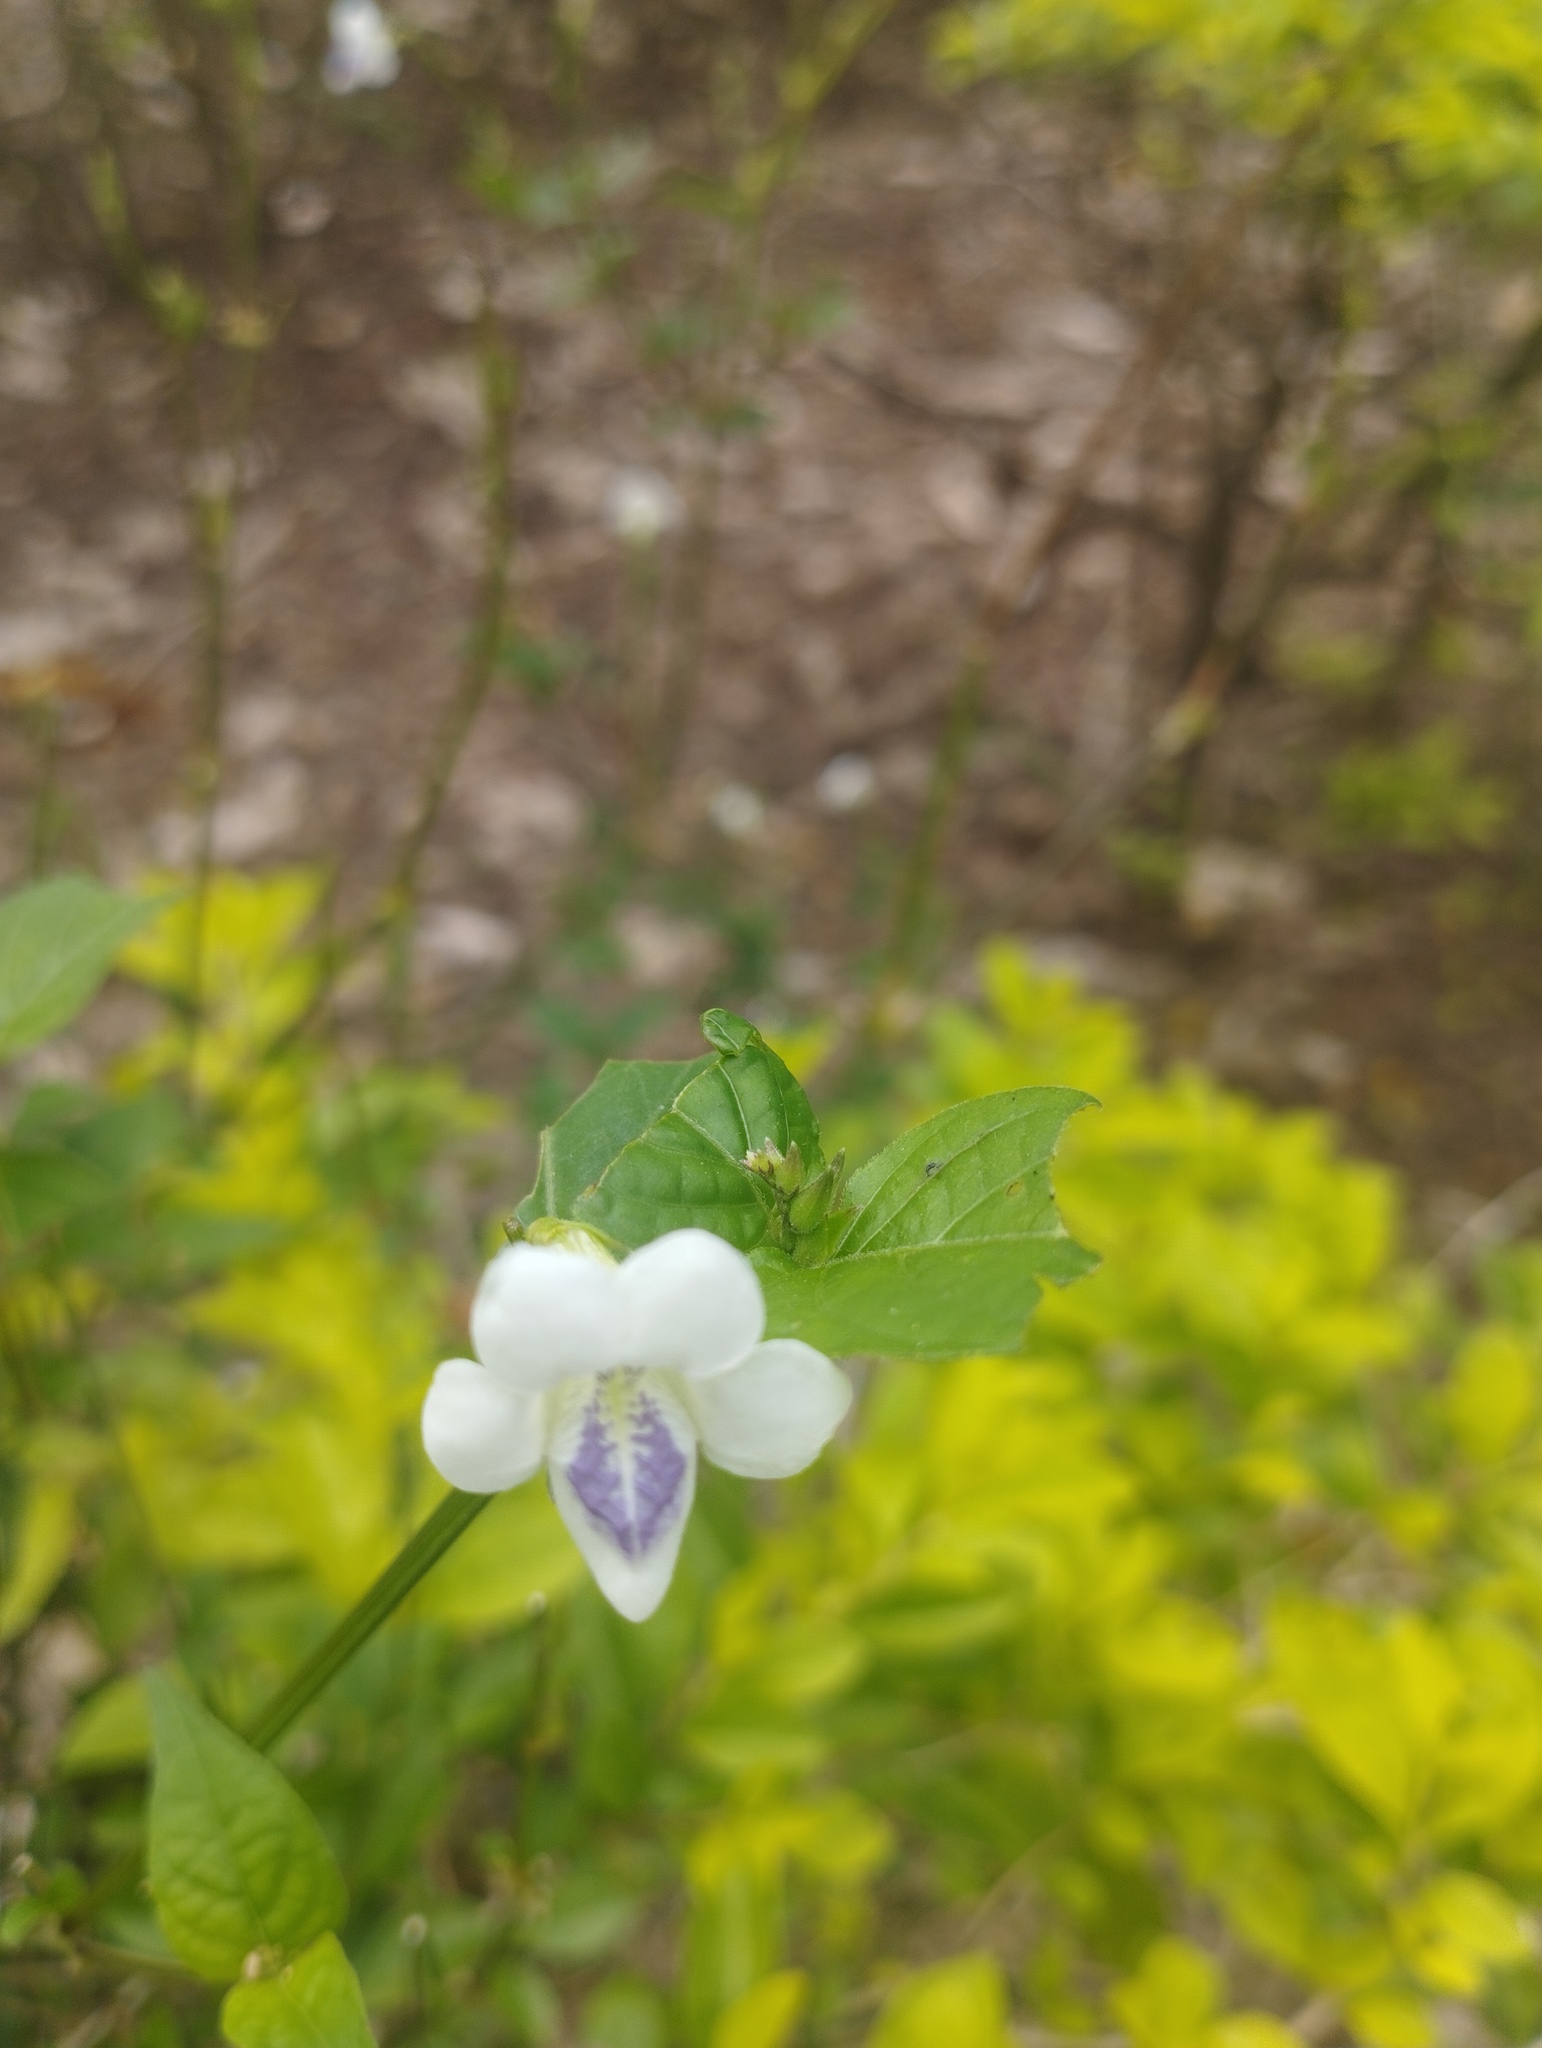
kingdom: Plantae
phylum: Tracheophyta
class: Magnoliopsida
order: Lamiales
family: Acanthaceae
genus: Asystasia
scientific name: Asystasia intrusa
